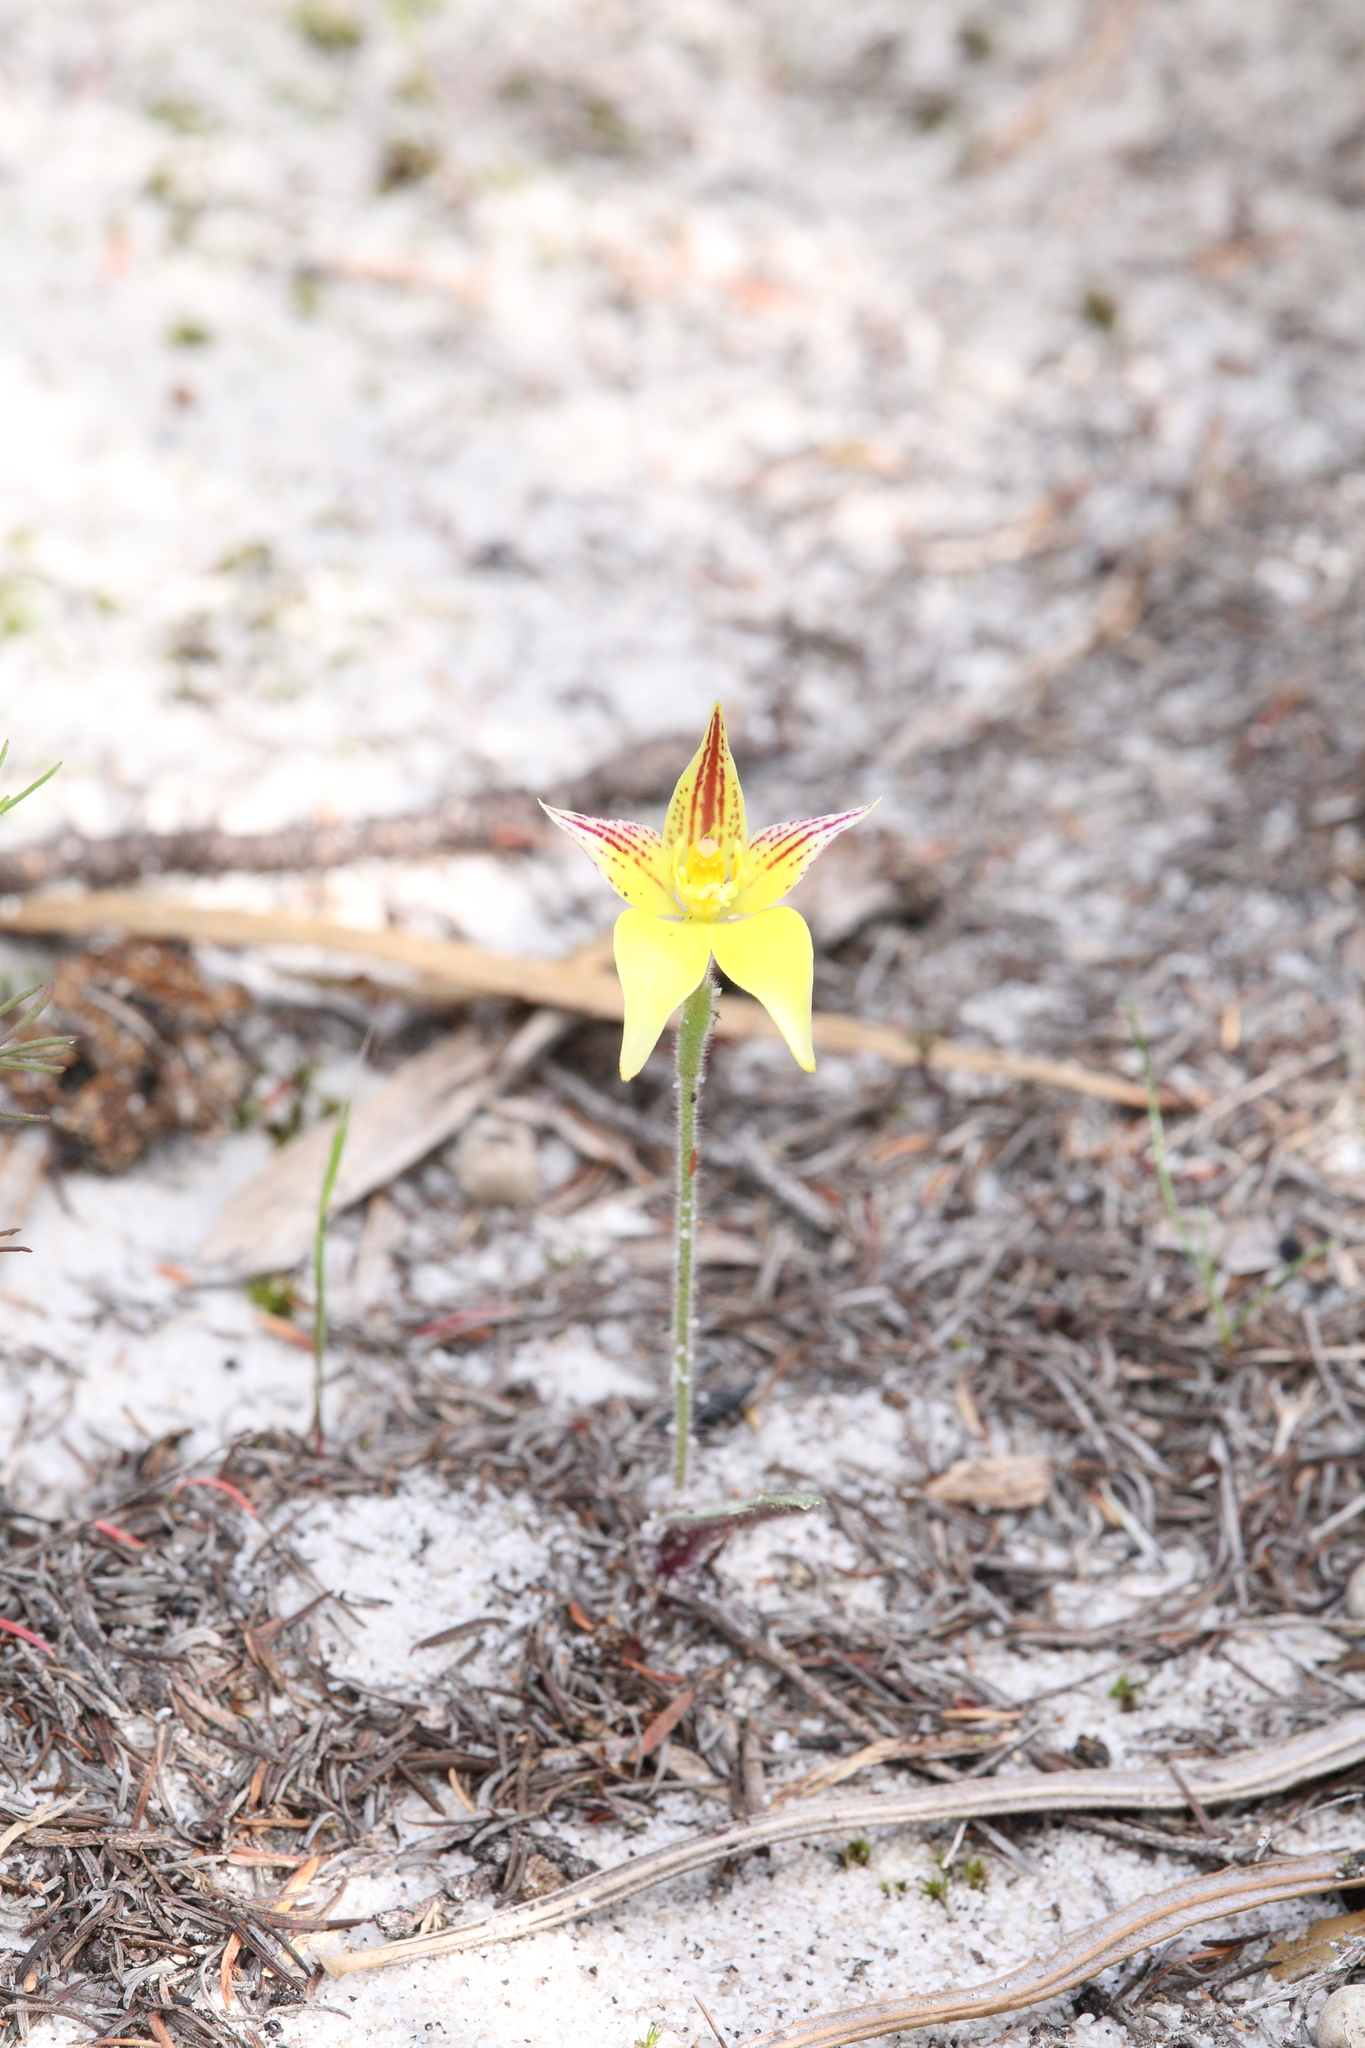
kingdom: Plantae
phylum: Tracheophyta
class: Liliopsida
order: Asparagales
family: Orchidaceae
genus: Caladenia
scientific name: Caladenia flava
